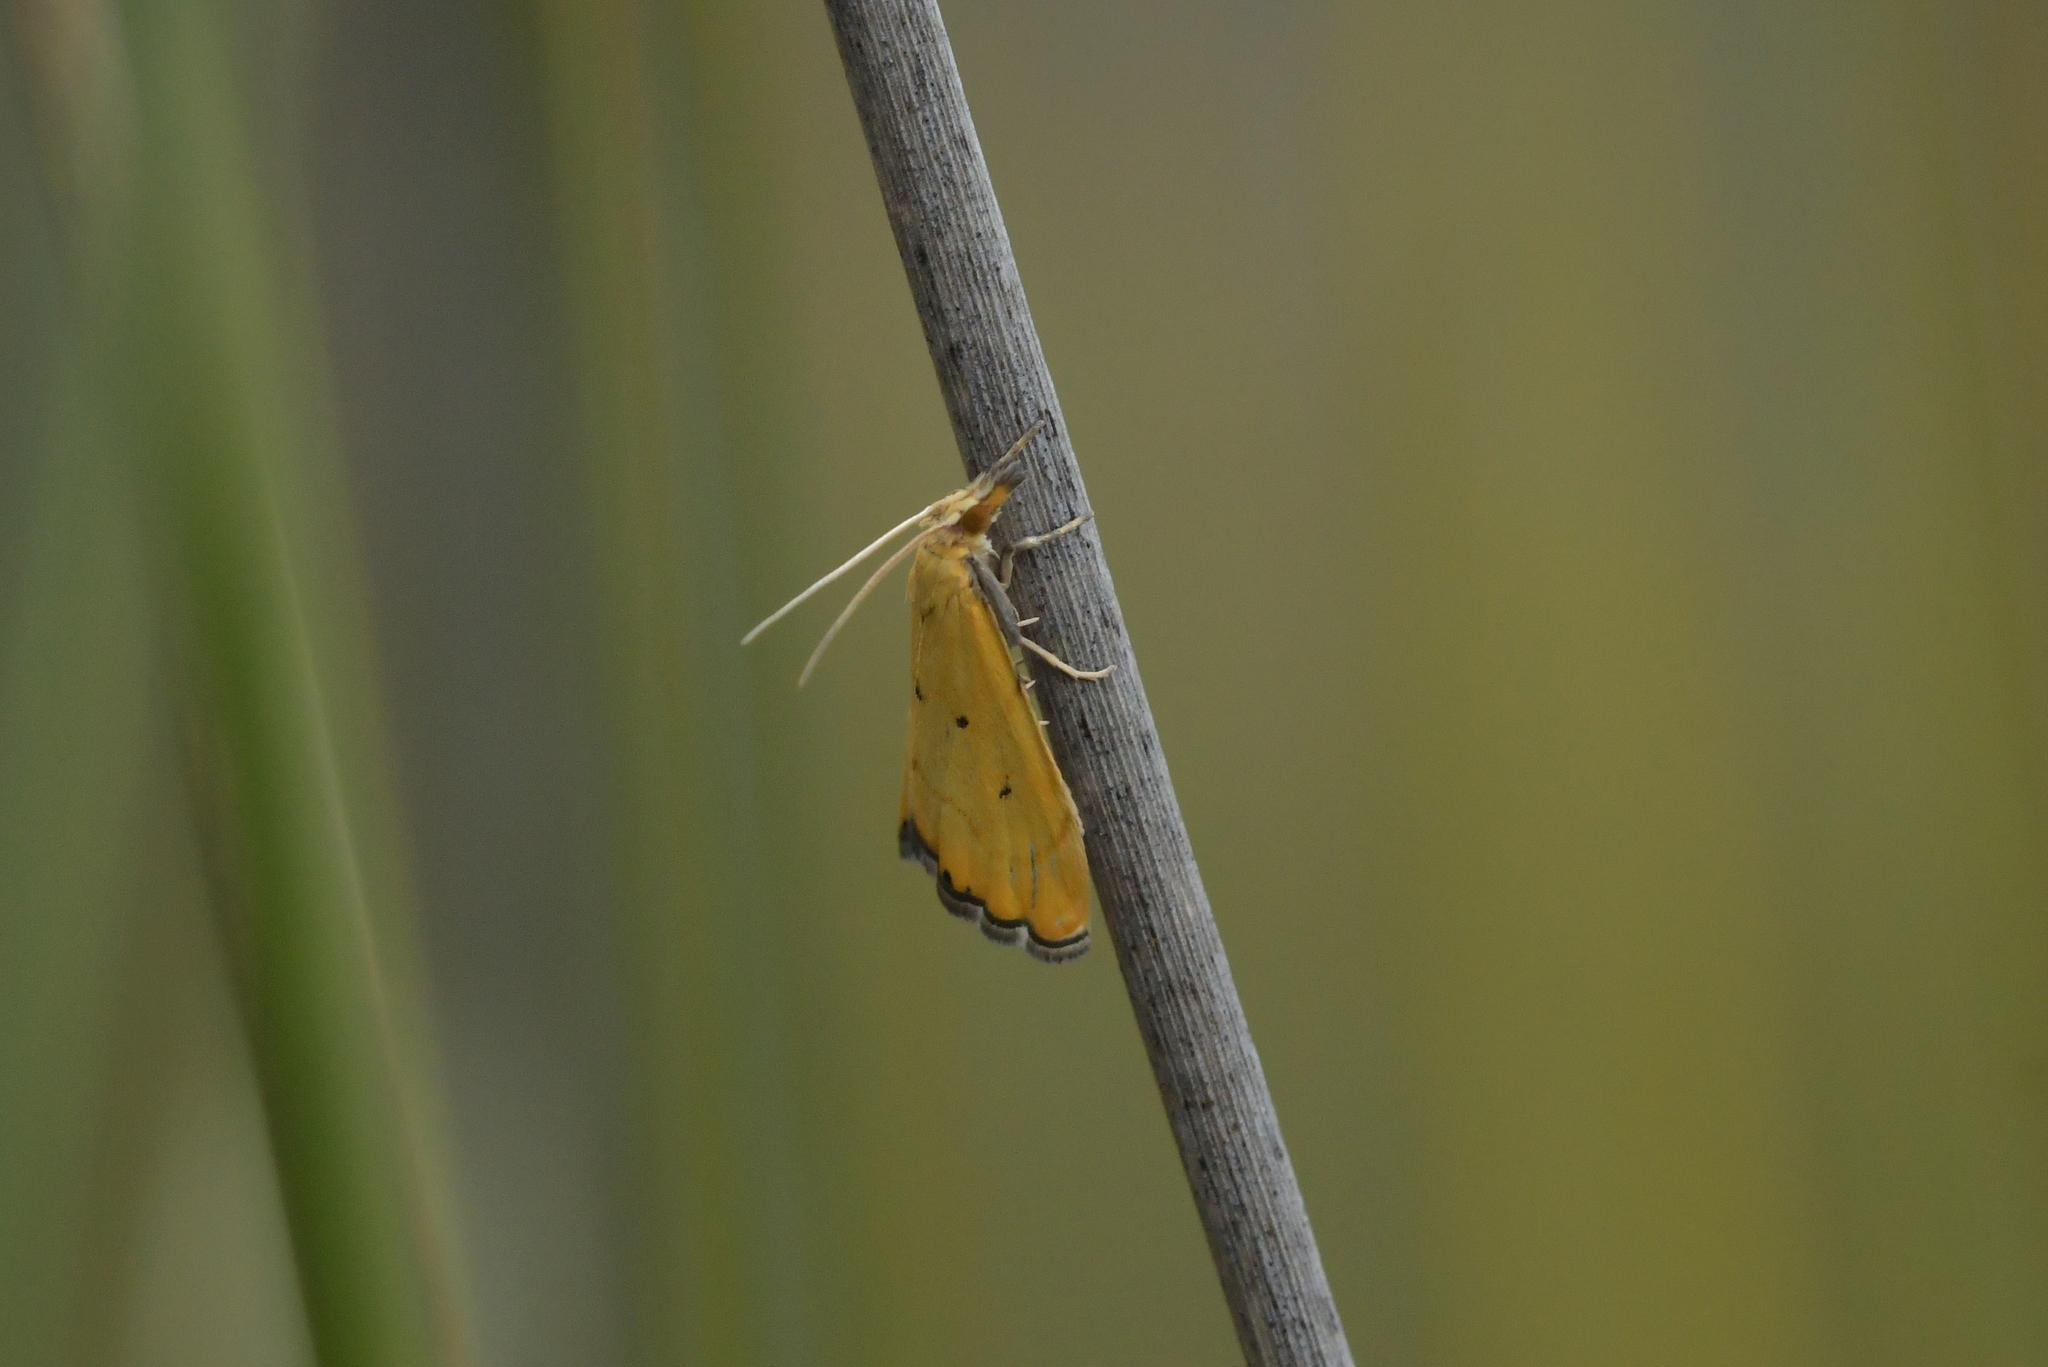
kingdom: Animalia
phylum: Arthropoda
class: Insecta
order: Lepidoptera
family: Crambidae
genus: Glaucocharis
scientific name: Glaucocharis holanthes
